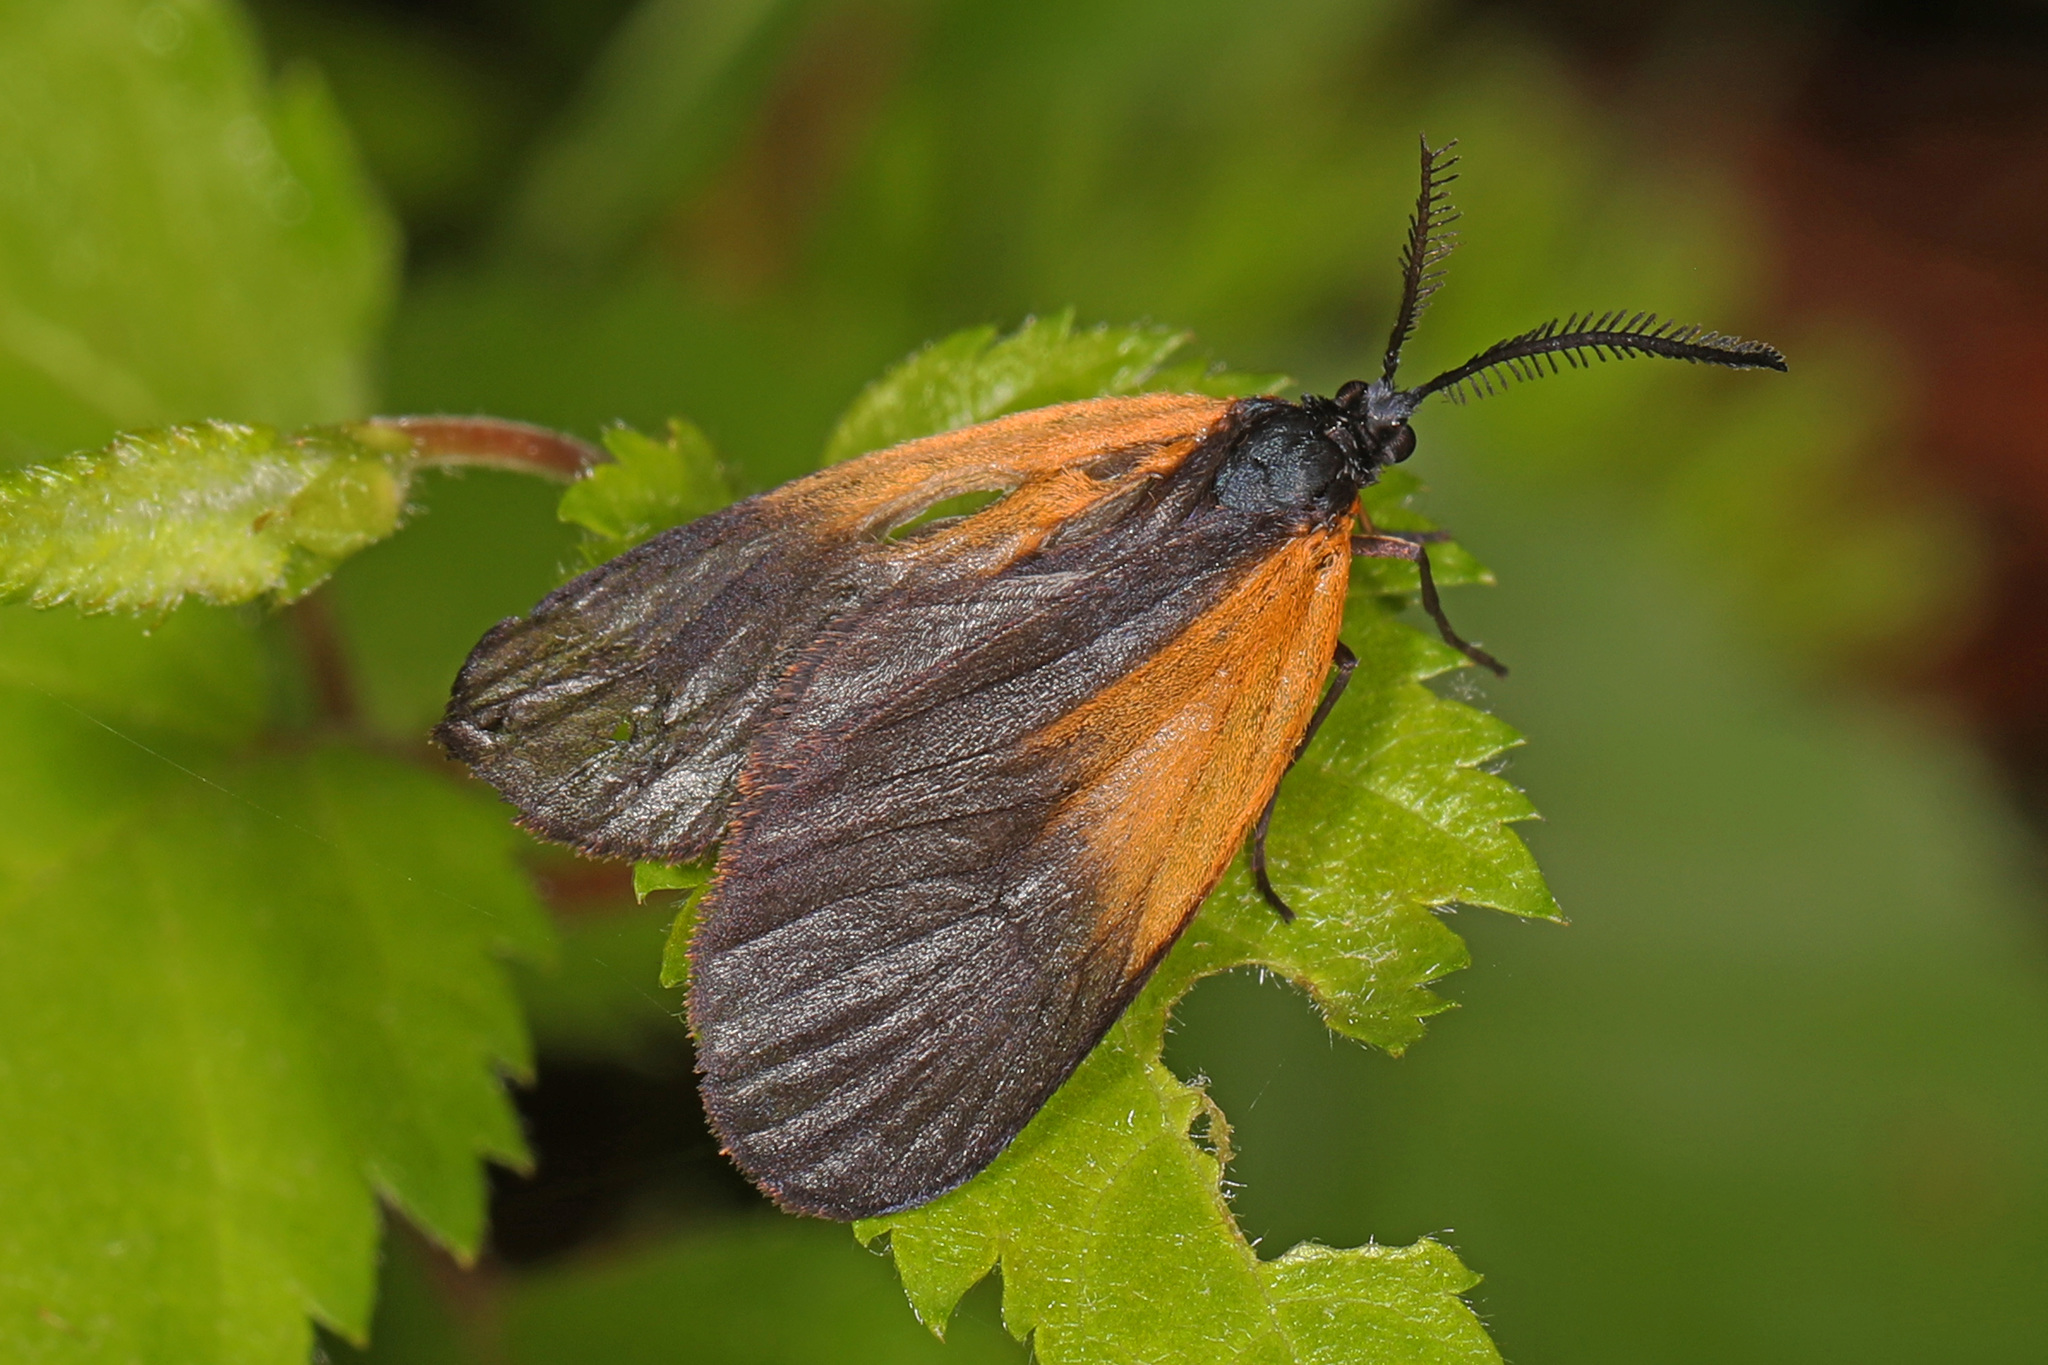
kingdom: Animalia
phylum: Arthropoda
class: Insecta
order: Lepidoptera
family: Zygaenidae
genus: Malthaca
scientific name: Malthaca dimidiata
